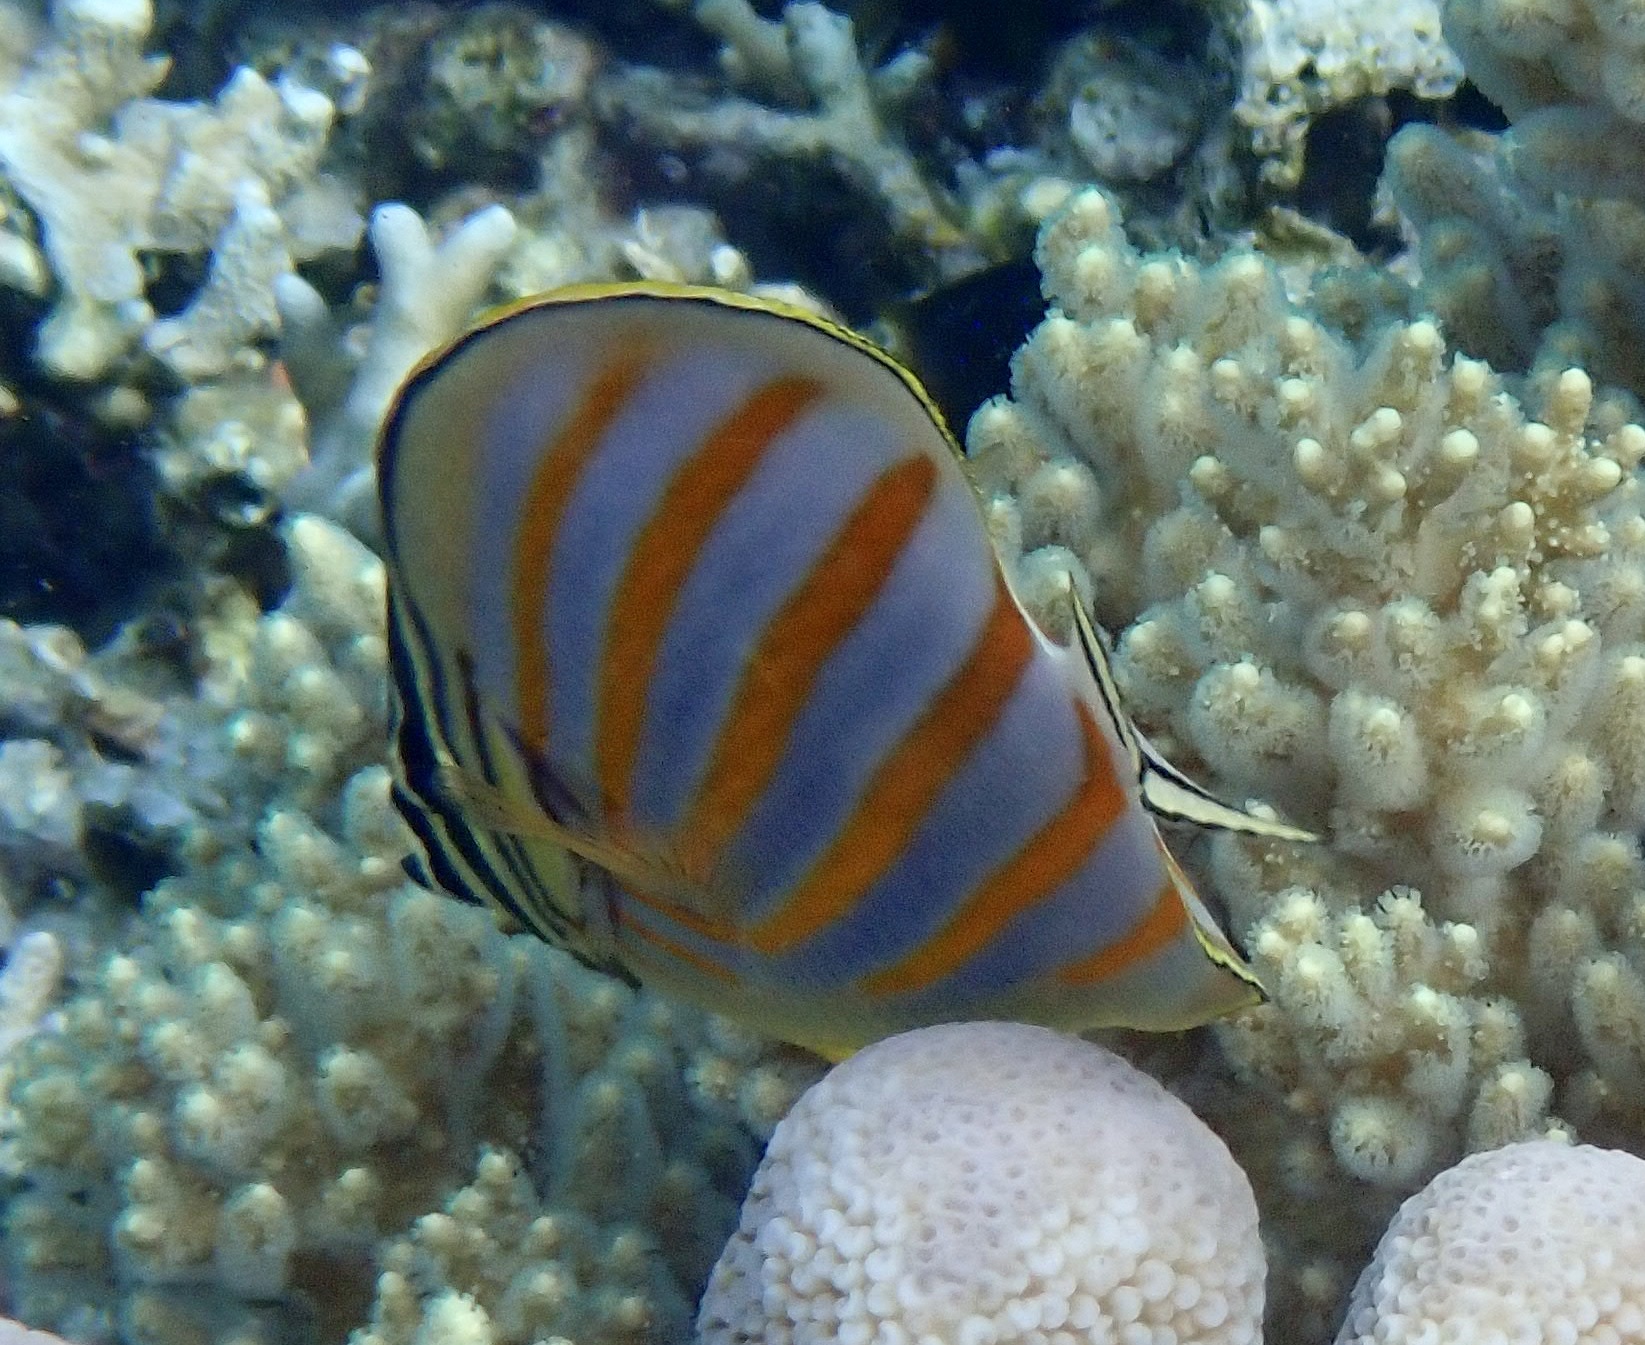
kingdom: Animalia
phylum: Chordata
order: Perciformes
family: Chaetodontidae
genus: Chaetodon
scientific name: Chaetodon ornatissimus
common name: Ornate butterflyfish
